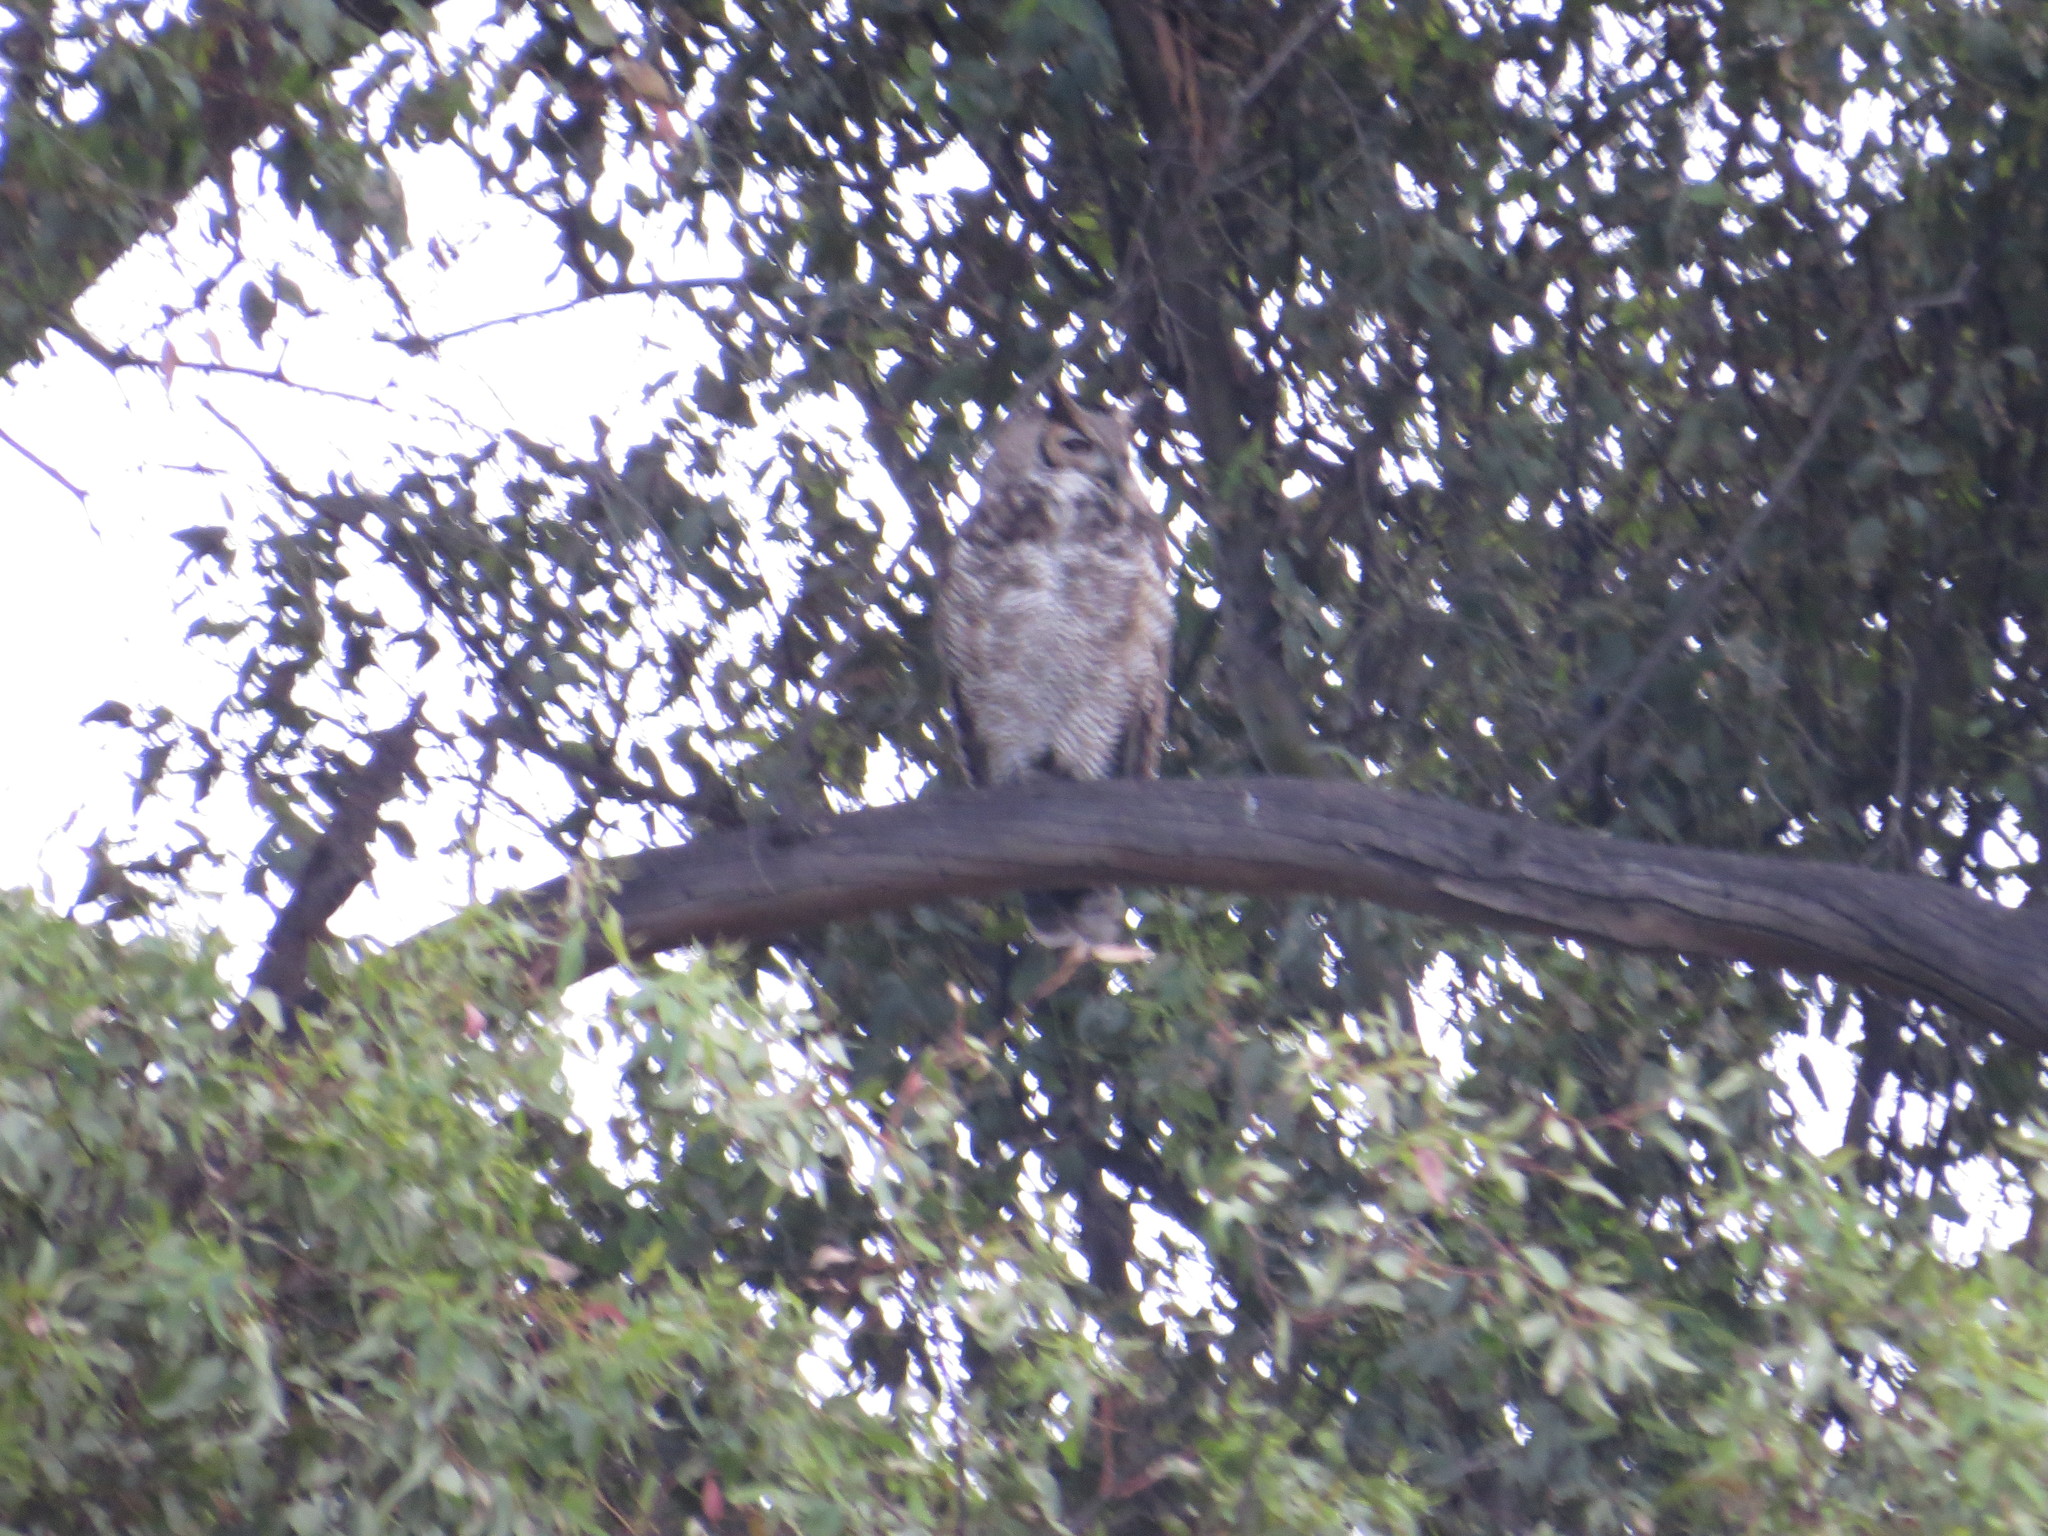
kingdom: Animalia
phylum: Chordata
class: Aves
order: Strigiformes
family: Strigidae
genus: Bubo
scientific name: Bubo virginianus
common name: Great horned owl
